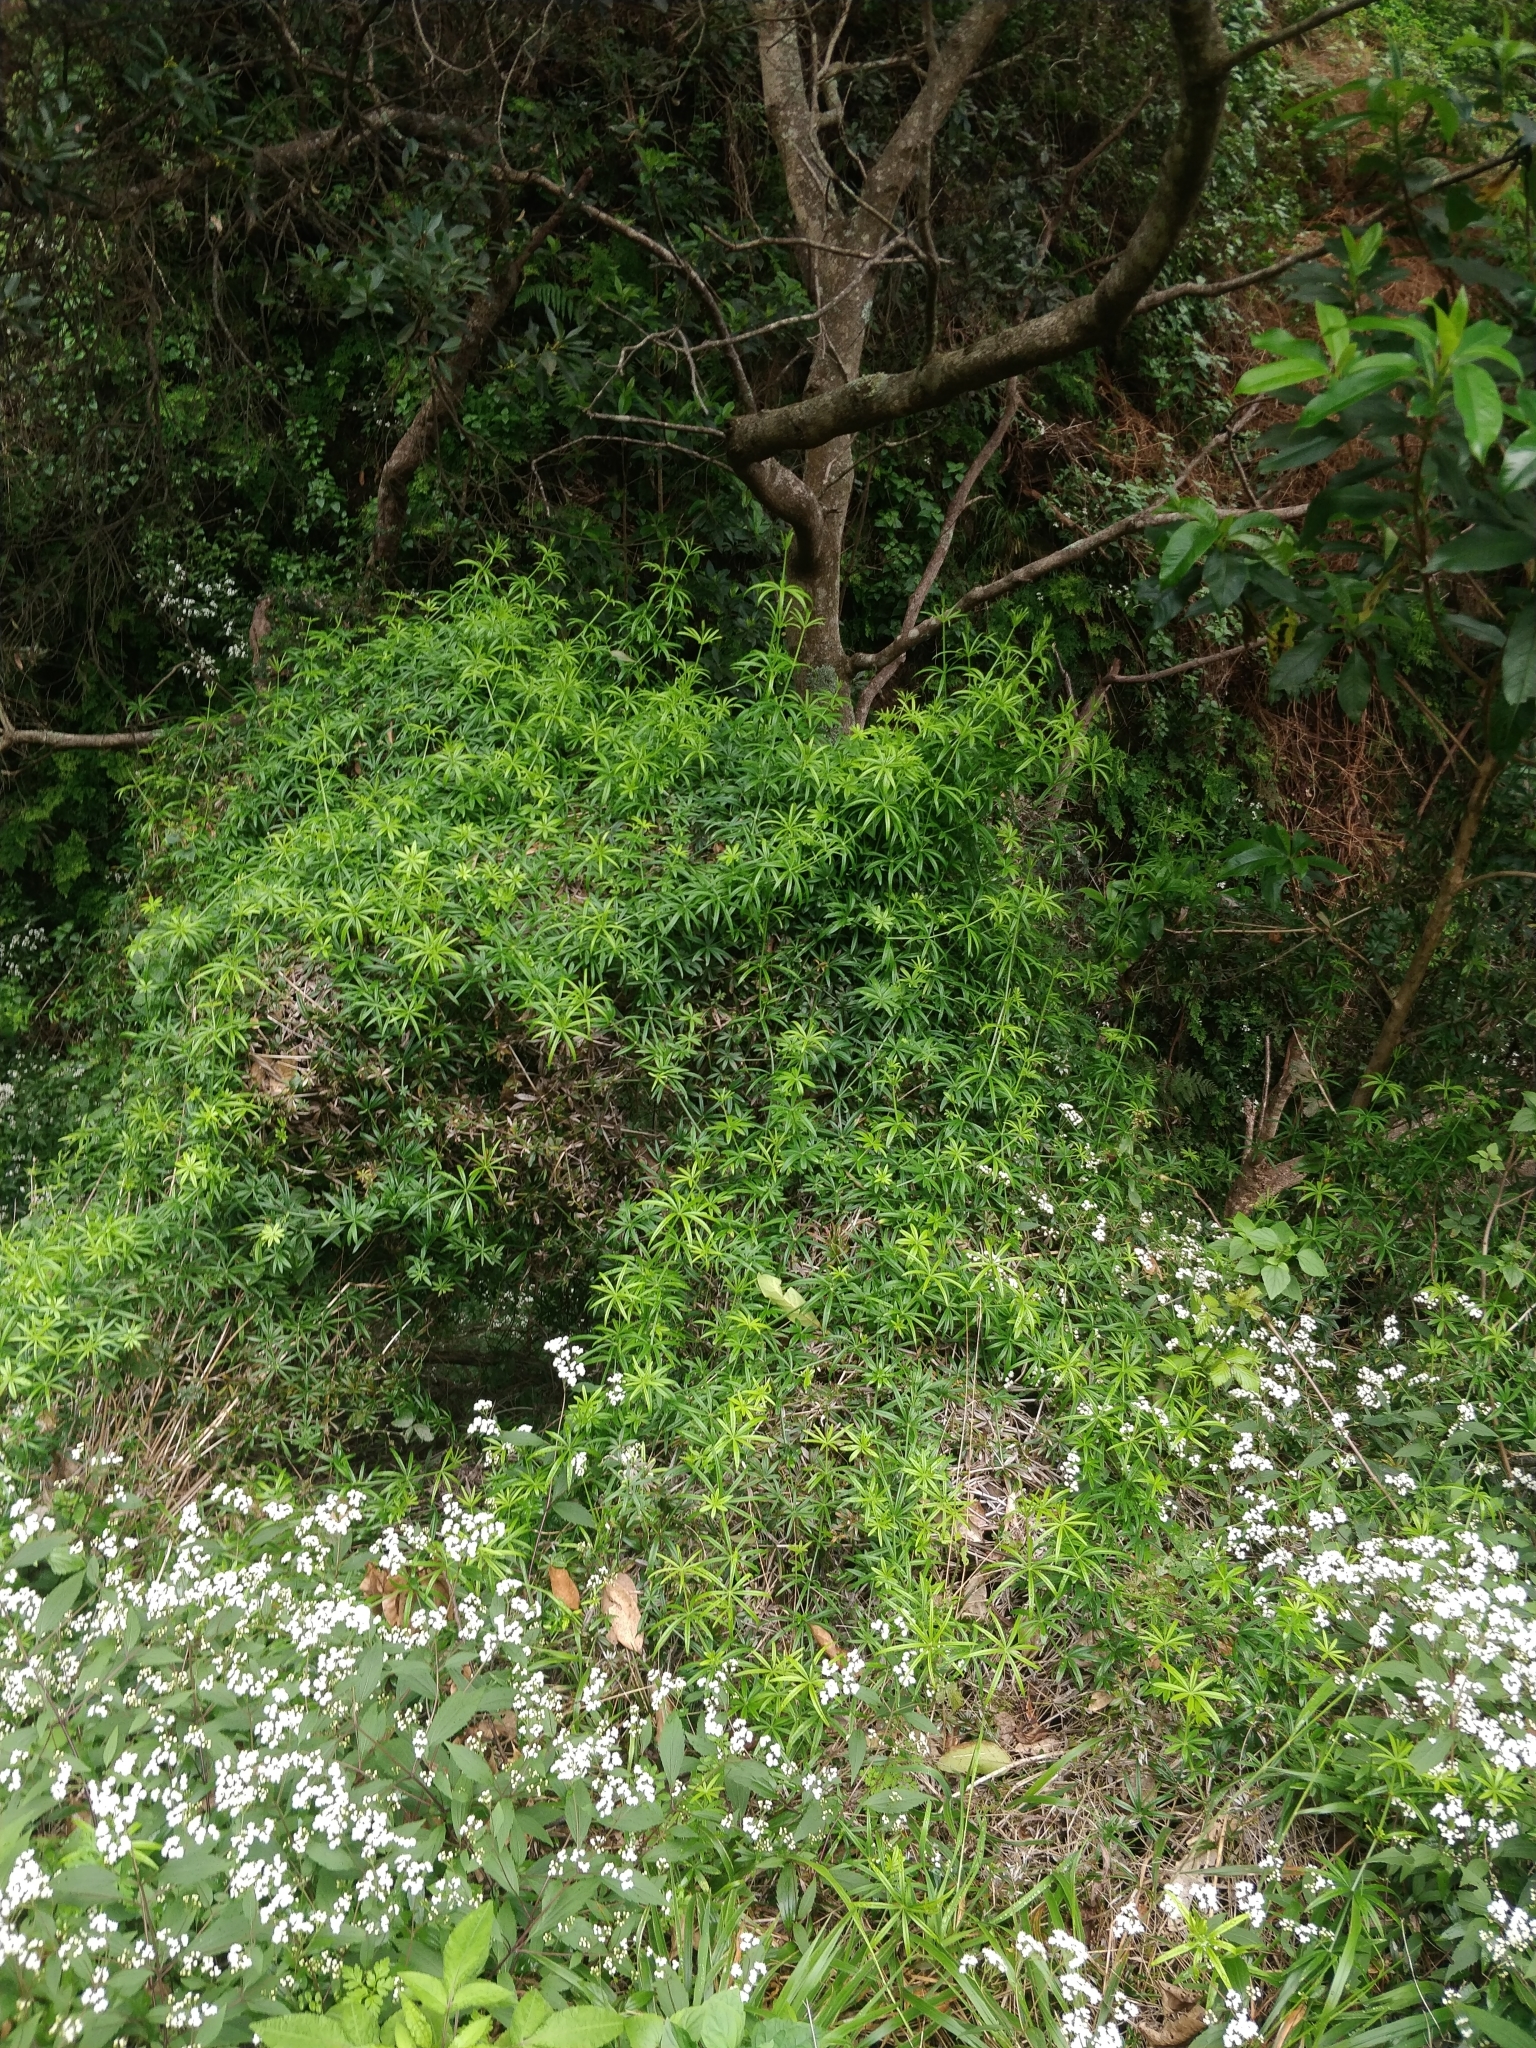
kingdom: Plantae
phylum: Tracheophyta
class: Magnoliopsida
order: Gentianales
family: Rubiaceae
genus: Rubia
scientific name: Rubia occidens
